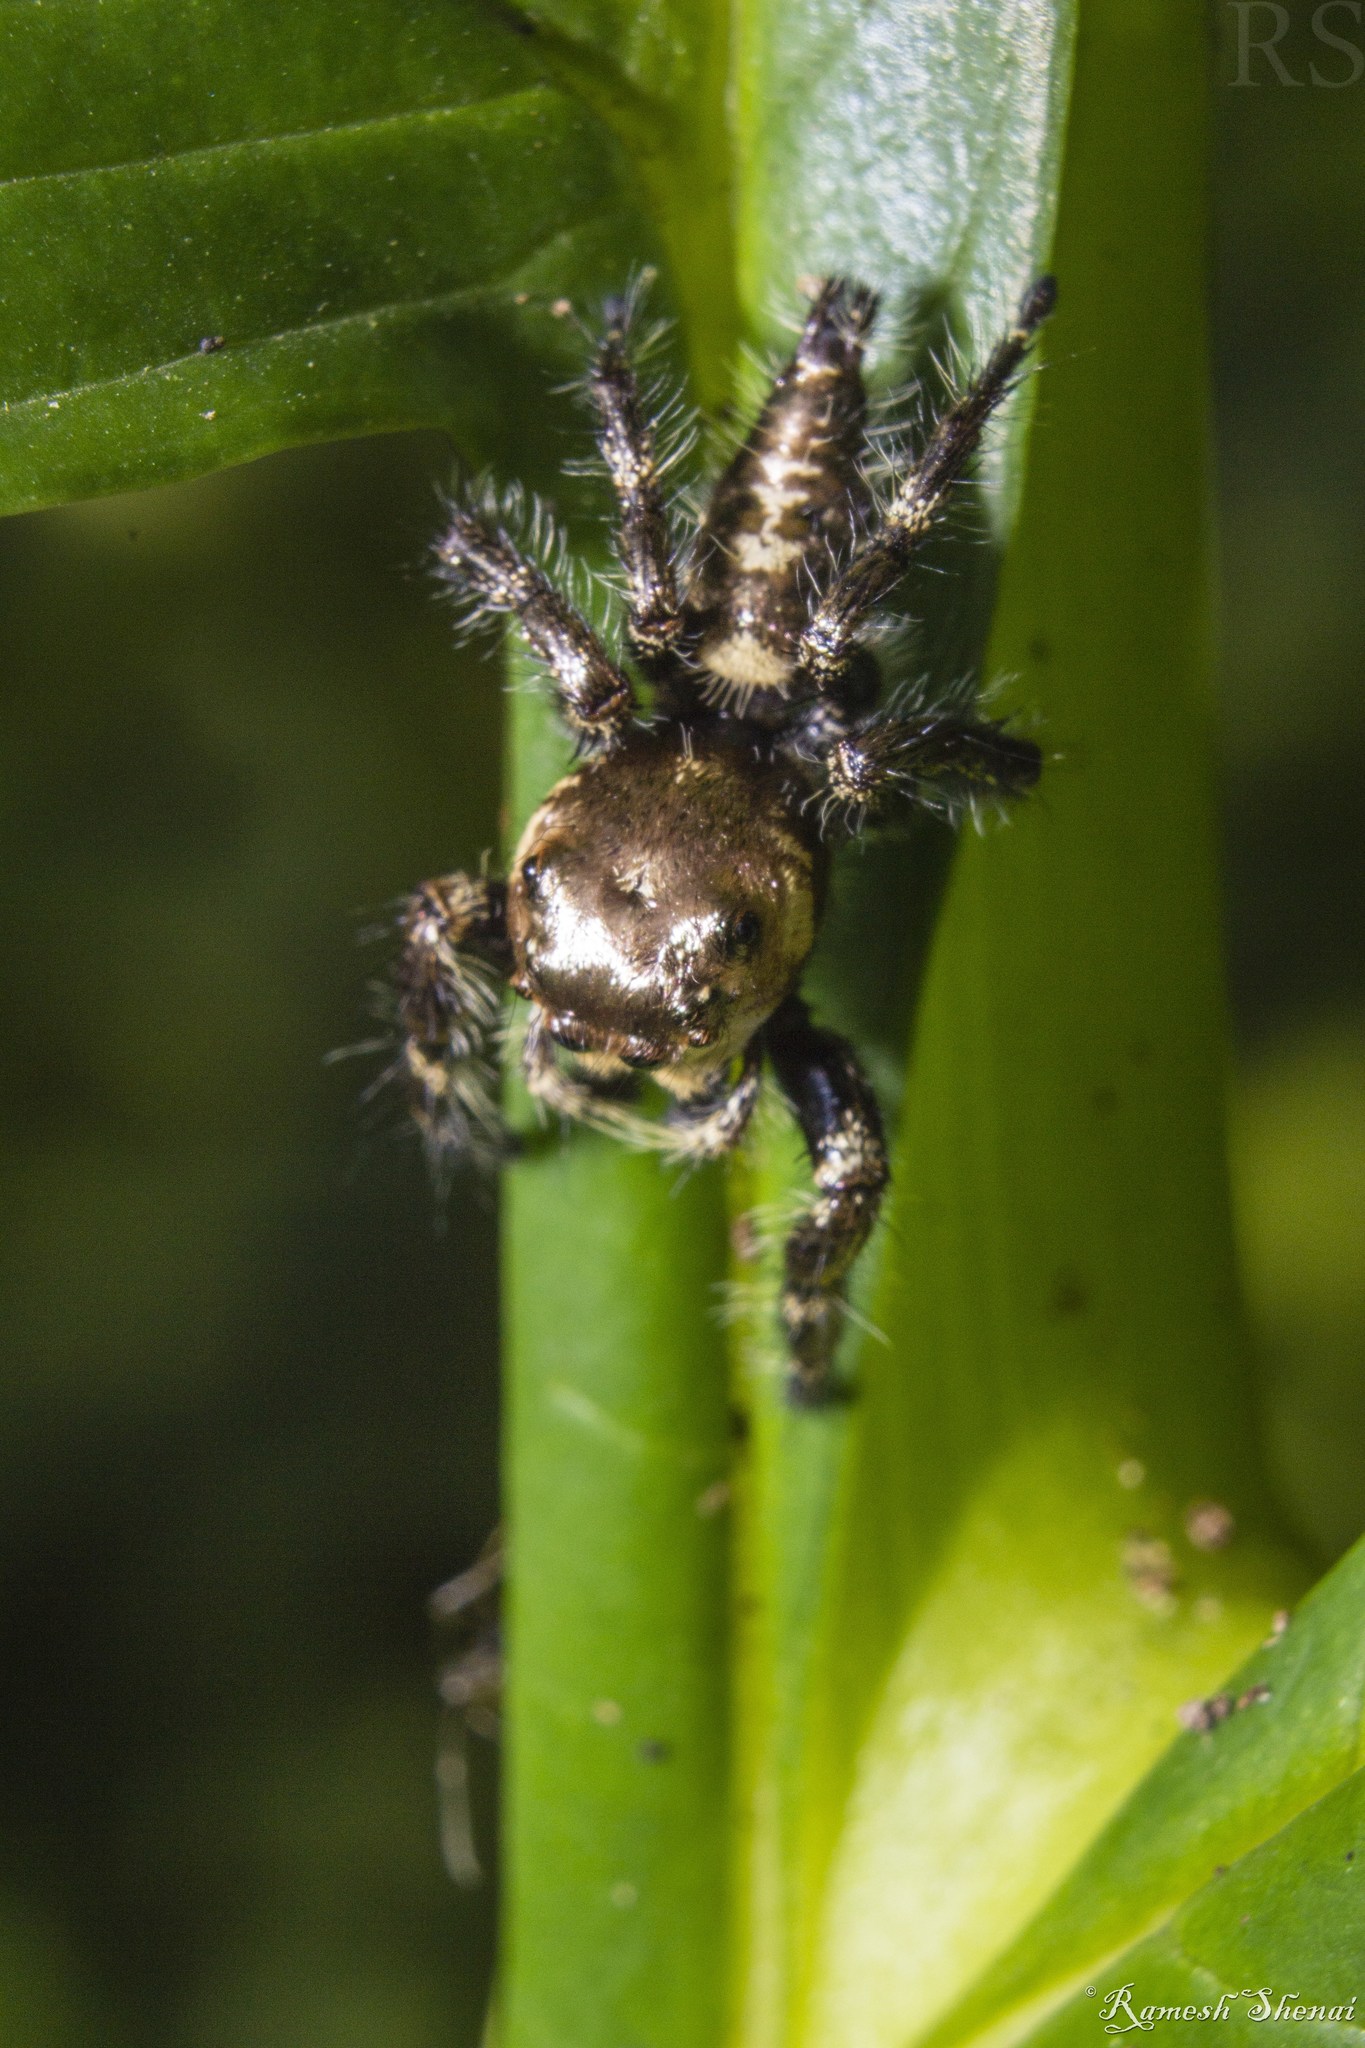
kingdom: Animalia
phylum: Arthropoda
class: Arachnida
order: Araneae
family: Salticidae
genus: Hyllus
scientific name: Hyllus semicupreus
